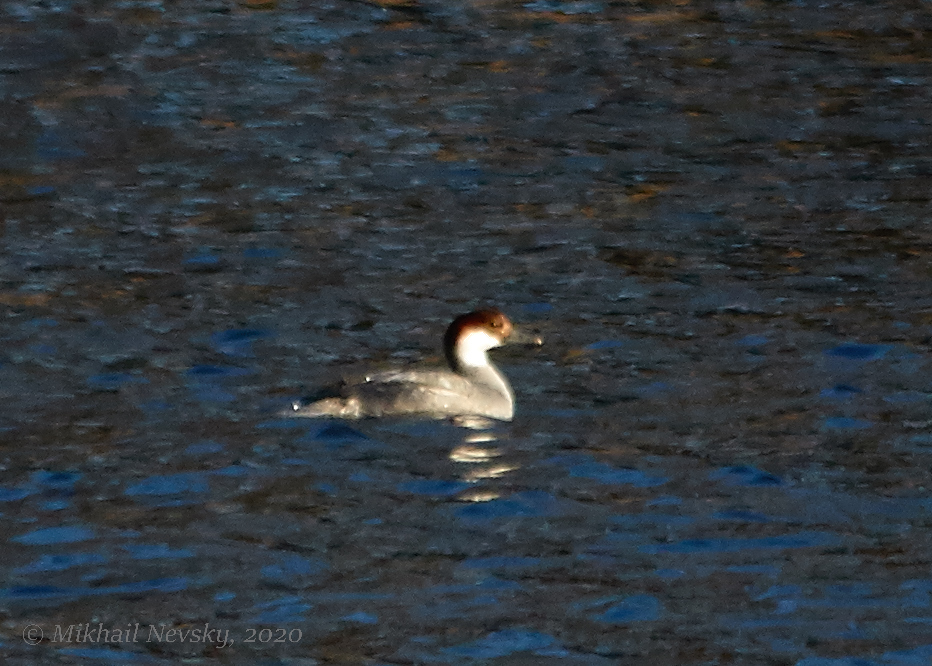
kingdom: Animalia
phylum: Chordata
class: Aves
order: Anseriformes
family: Anatidae
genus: Mergellus
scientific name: Mergellus albellus
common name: Smew
